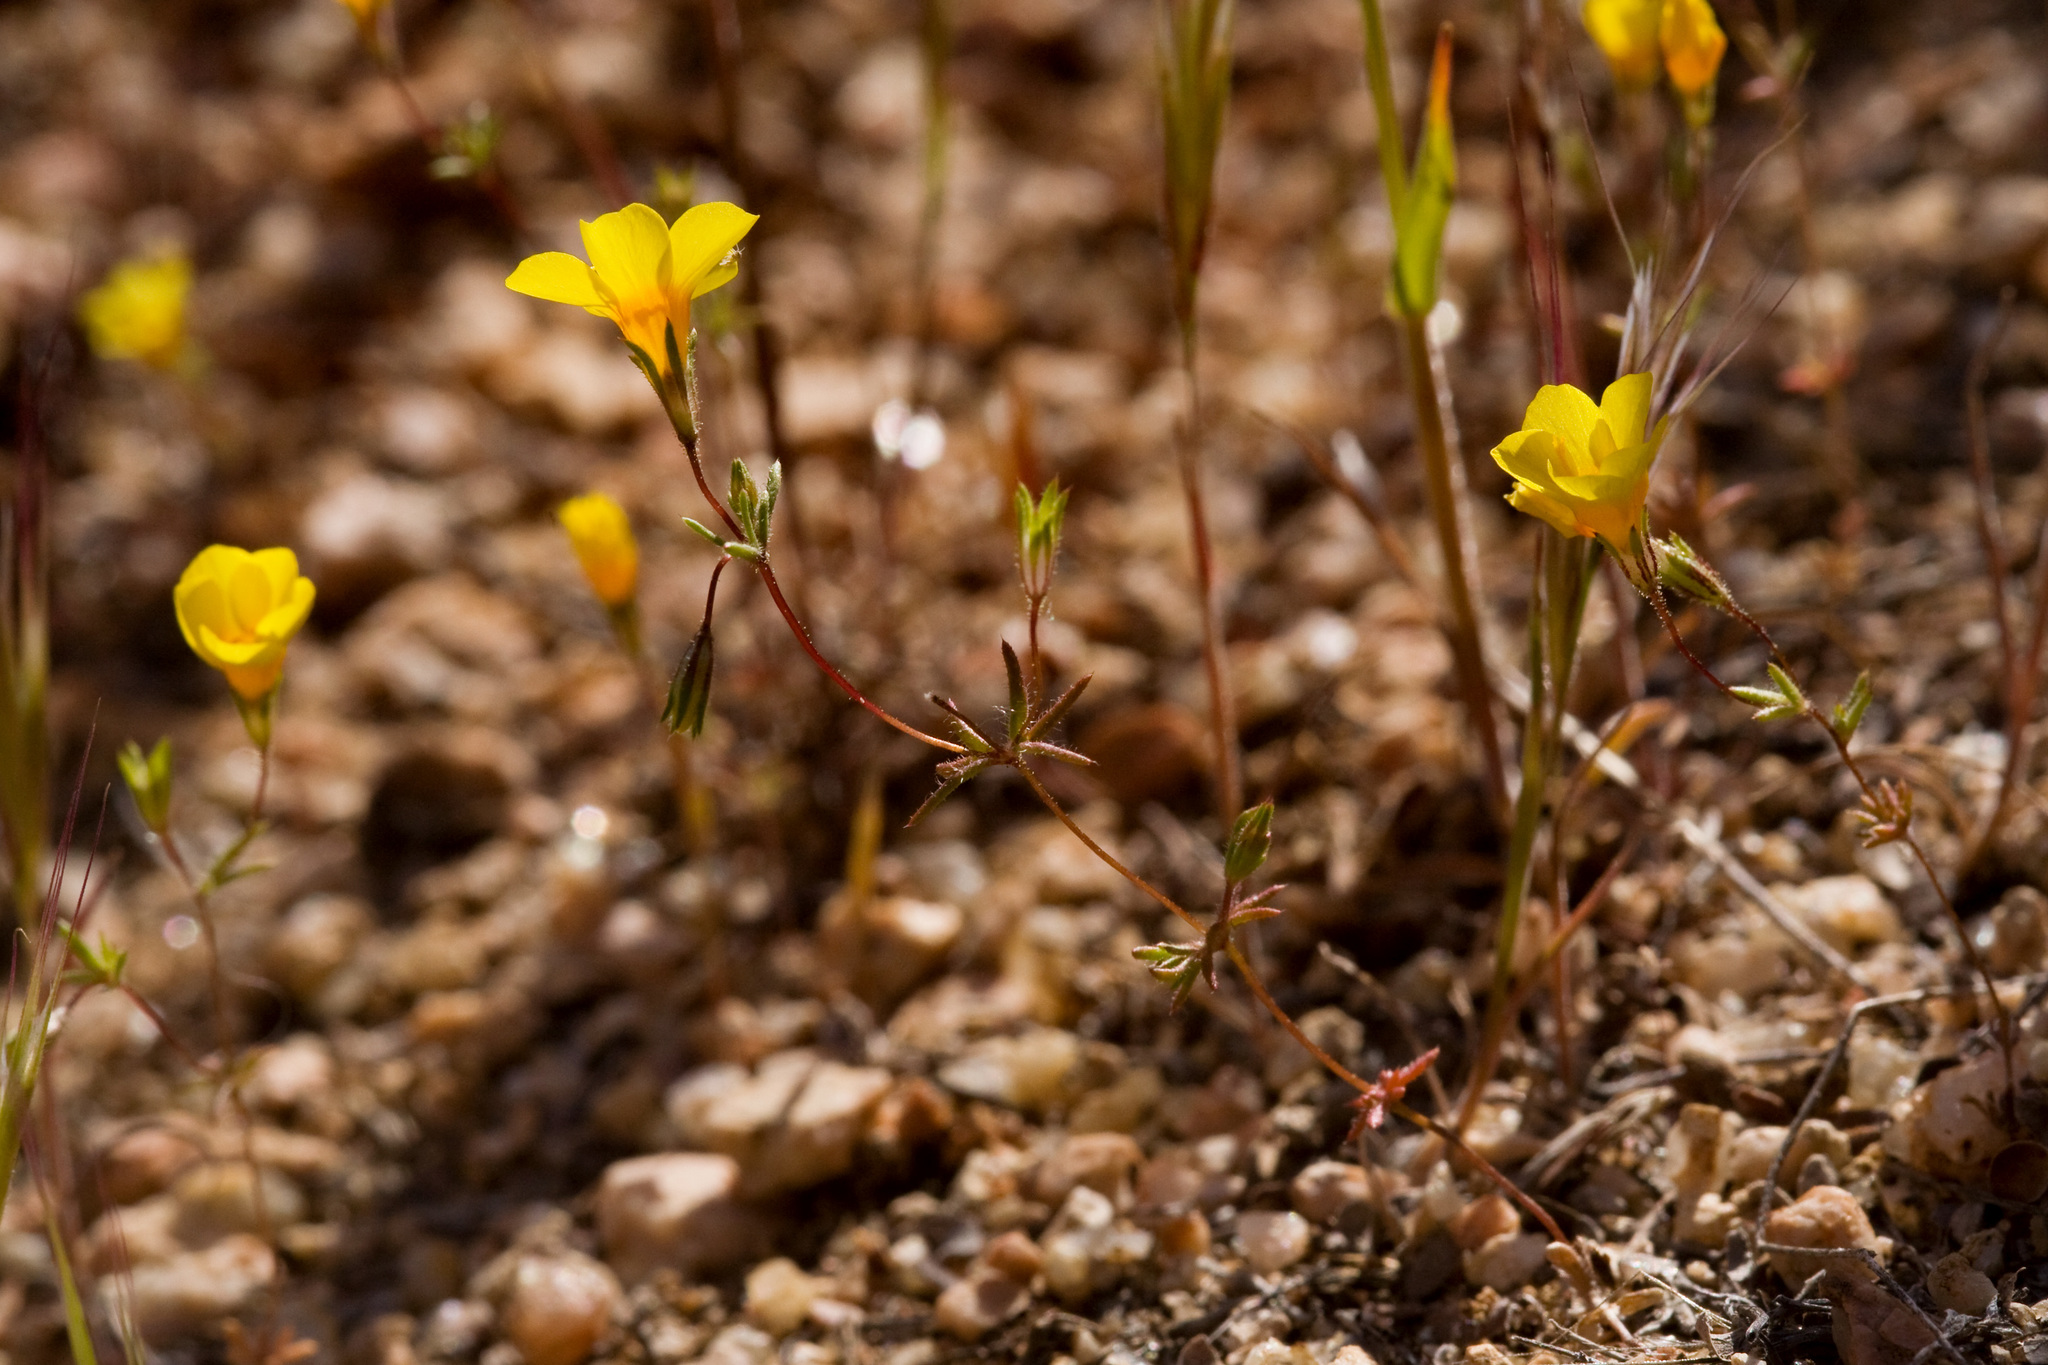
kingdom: Plantae
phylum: Tracheophyta
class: Magnoliopsida
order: Ericales
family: Polemoniaceae
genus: Leptosiphon
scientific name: Leptosiphon chrysanthus
